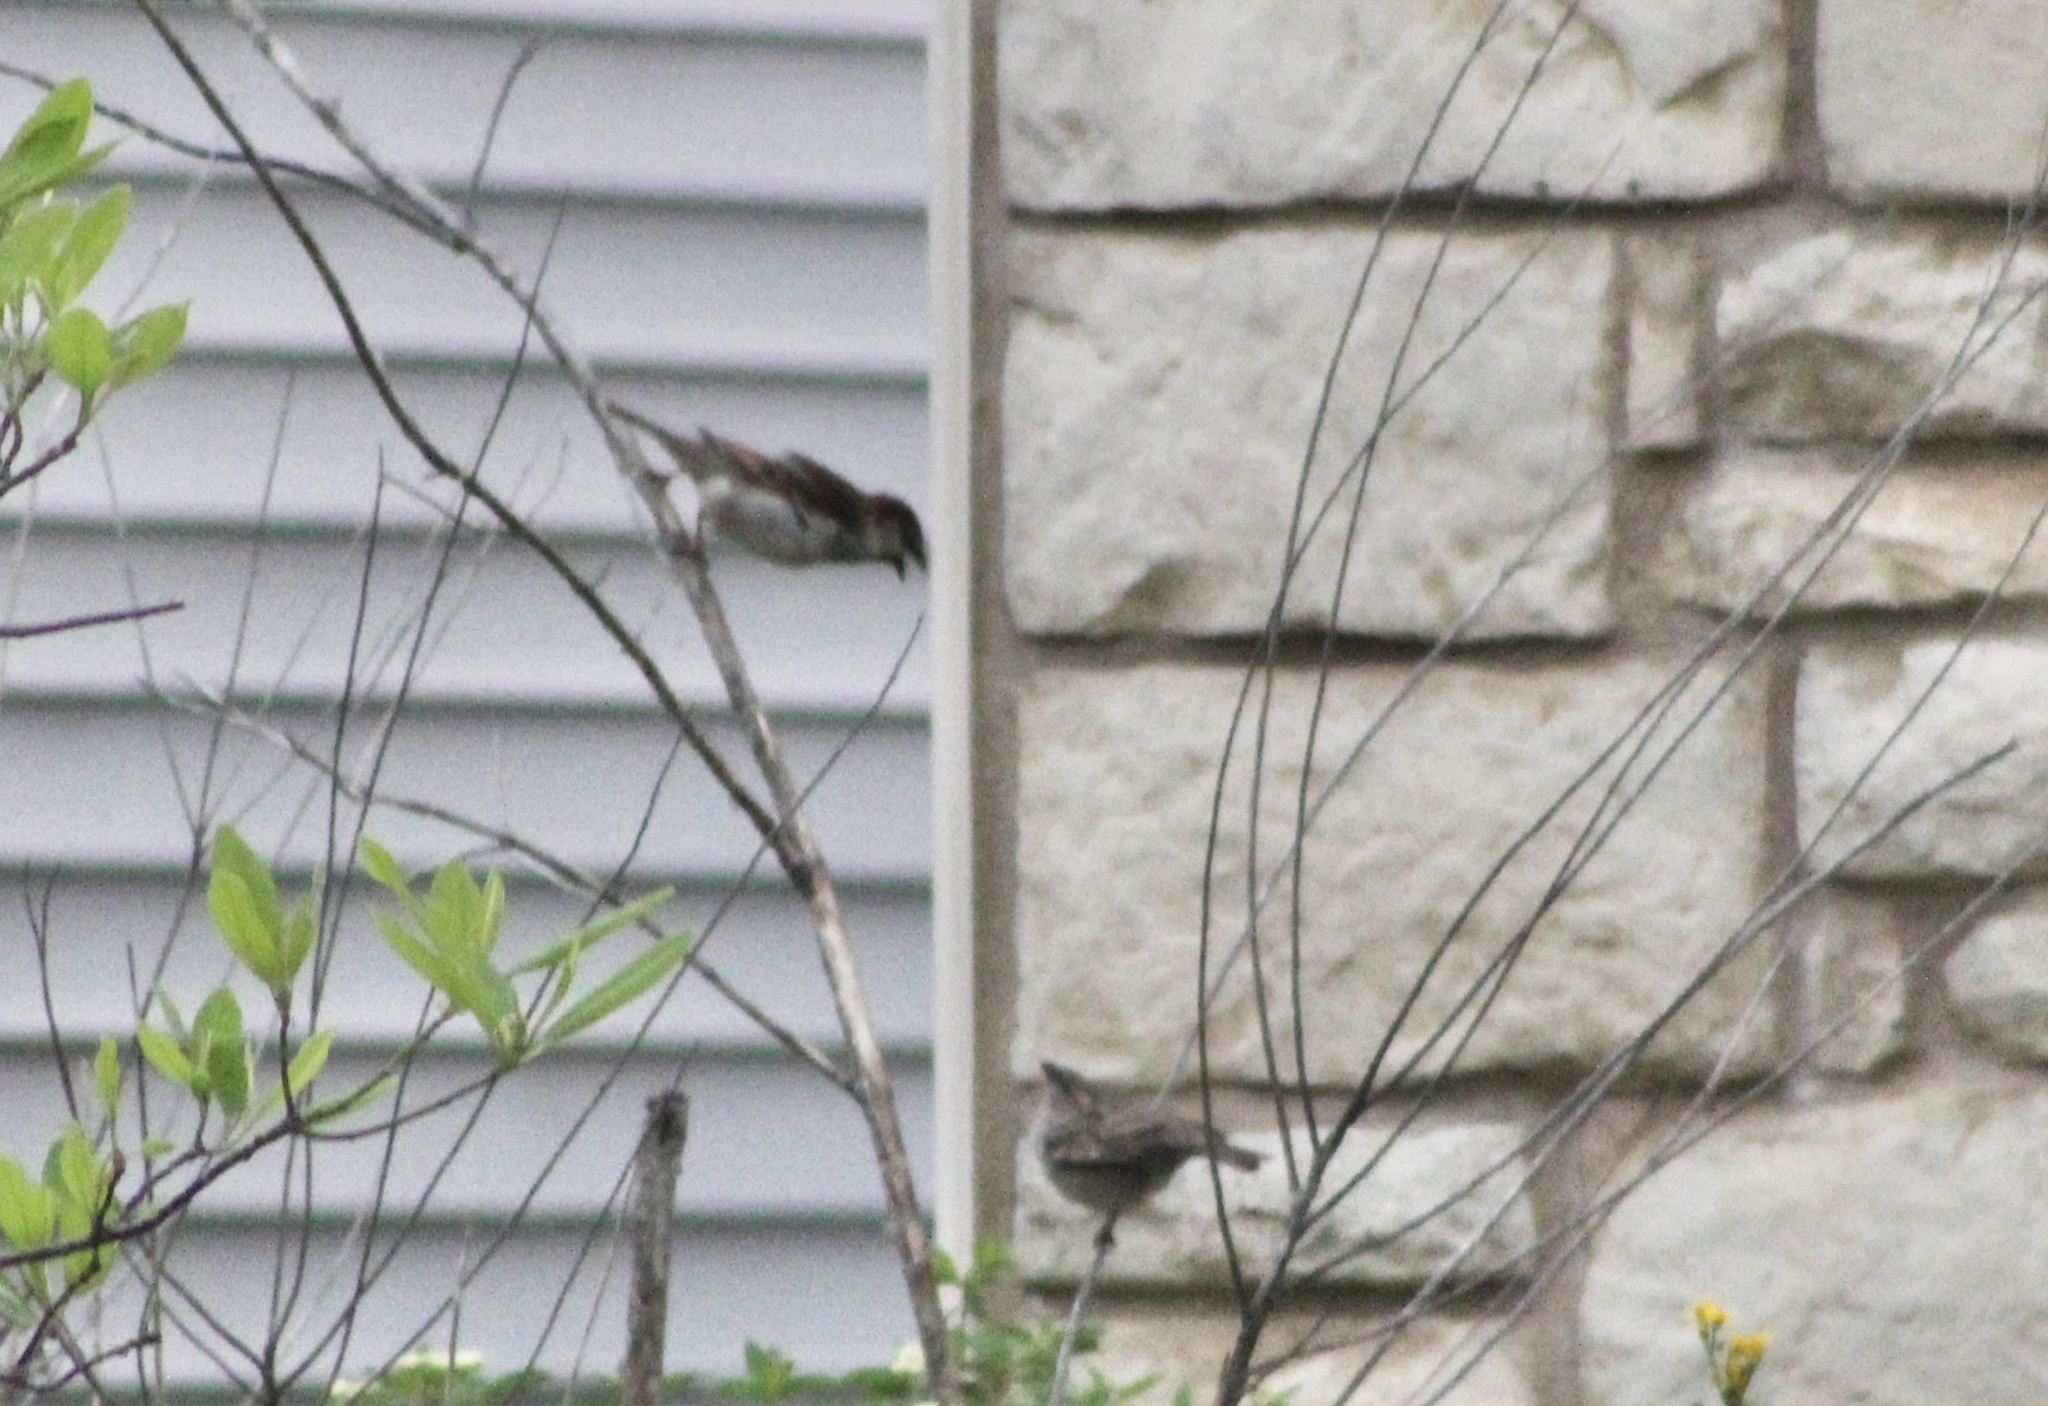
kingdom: Animalia
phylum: Chordata
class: Aves
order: Passeriformes
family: Passeridae
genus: Passer
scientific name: Passer domesticus
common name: House sparrow
